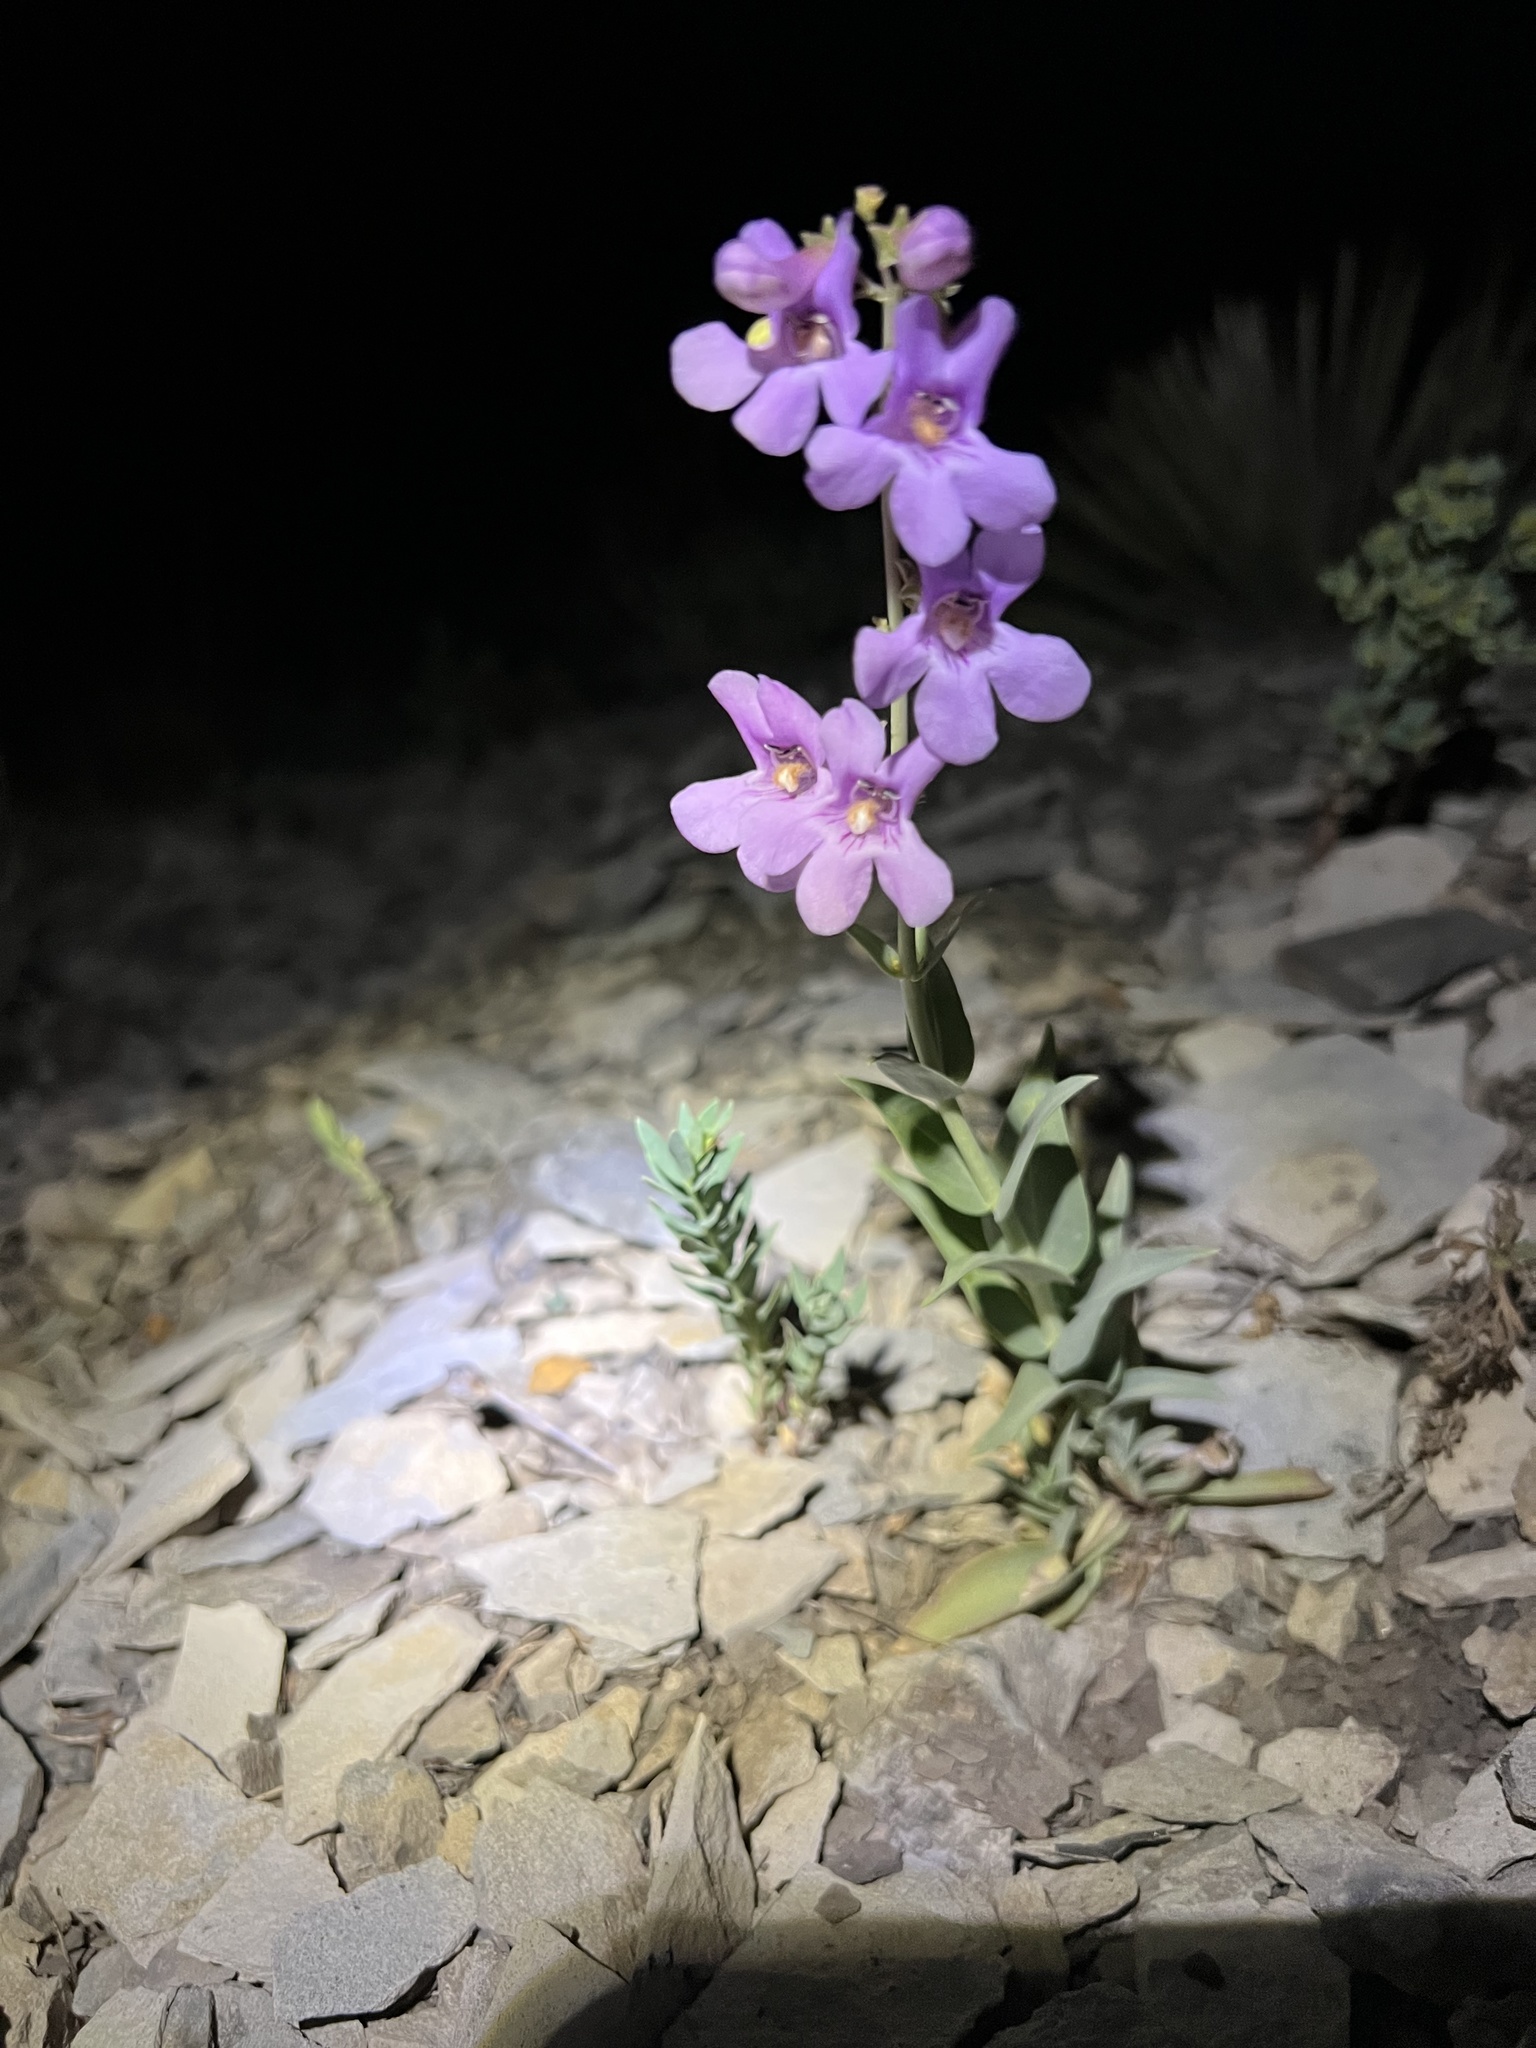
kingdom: Plantae
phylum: Tracheophyta
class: Magnoliopsida
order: Lamiales
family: Plantaginaceae
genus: Penstemon
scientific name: Penstemon secundiflorus
